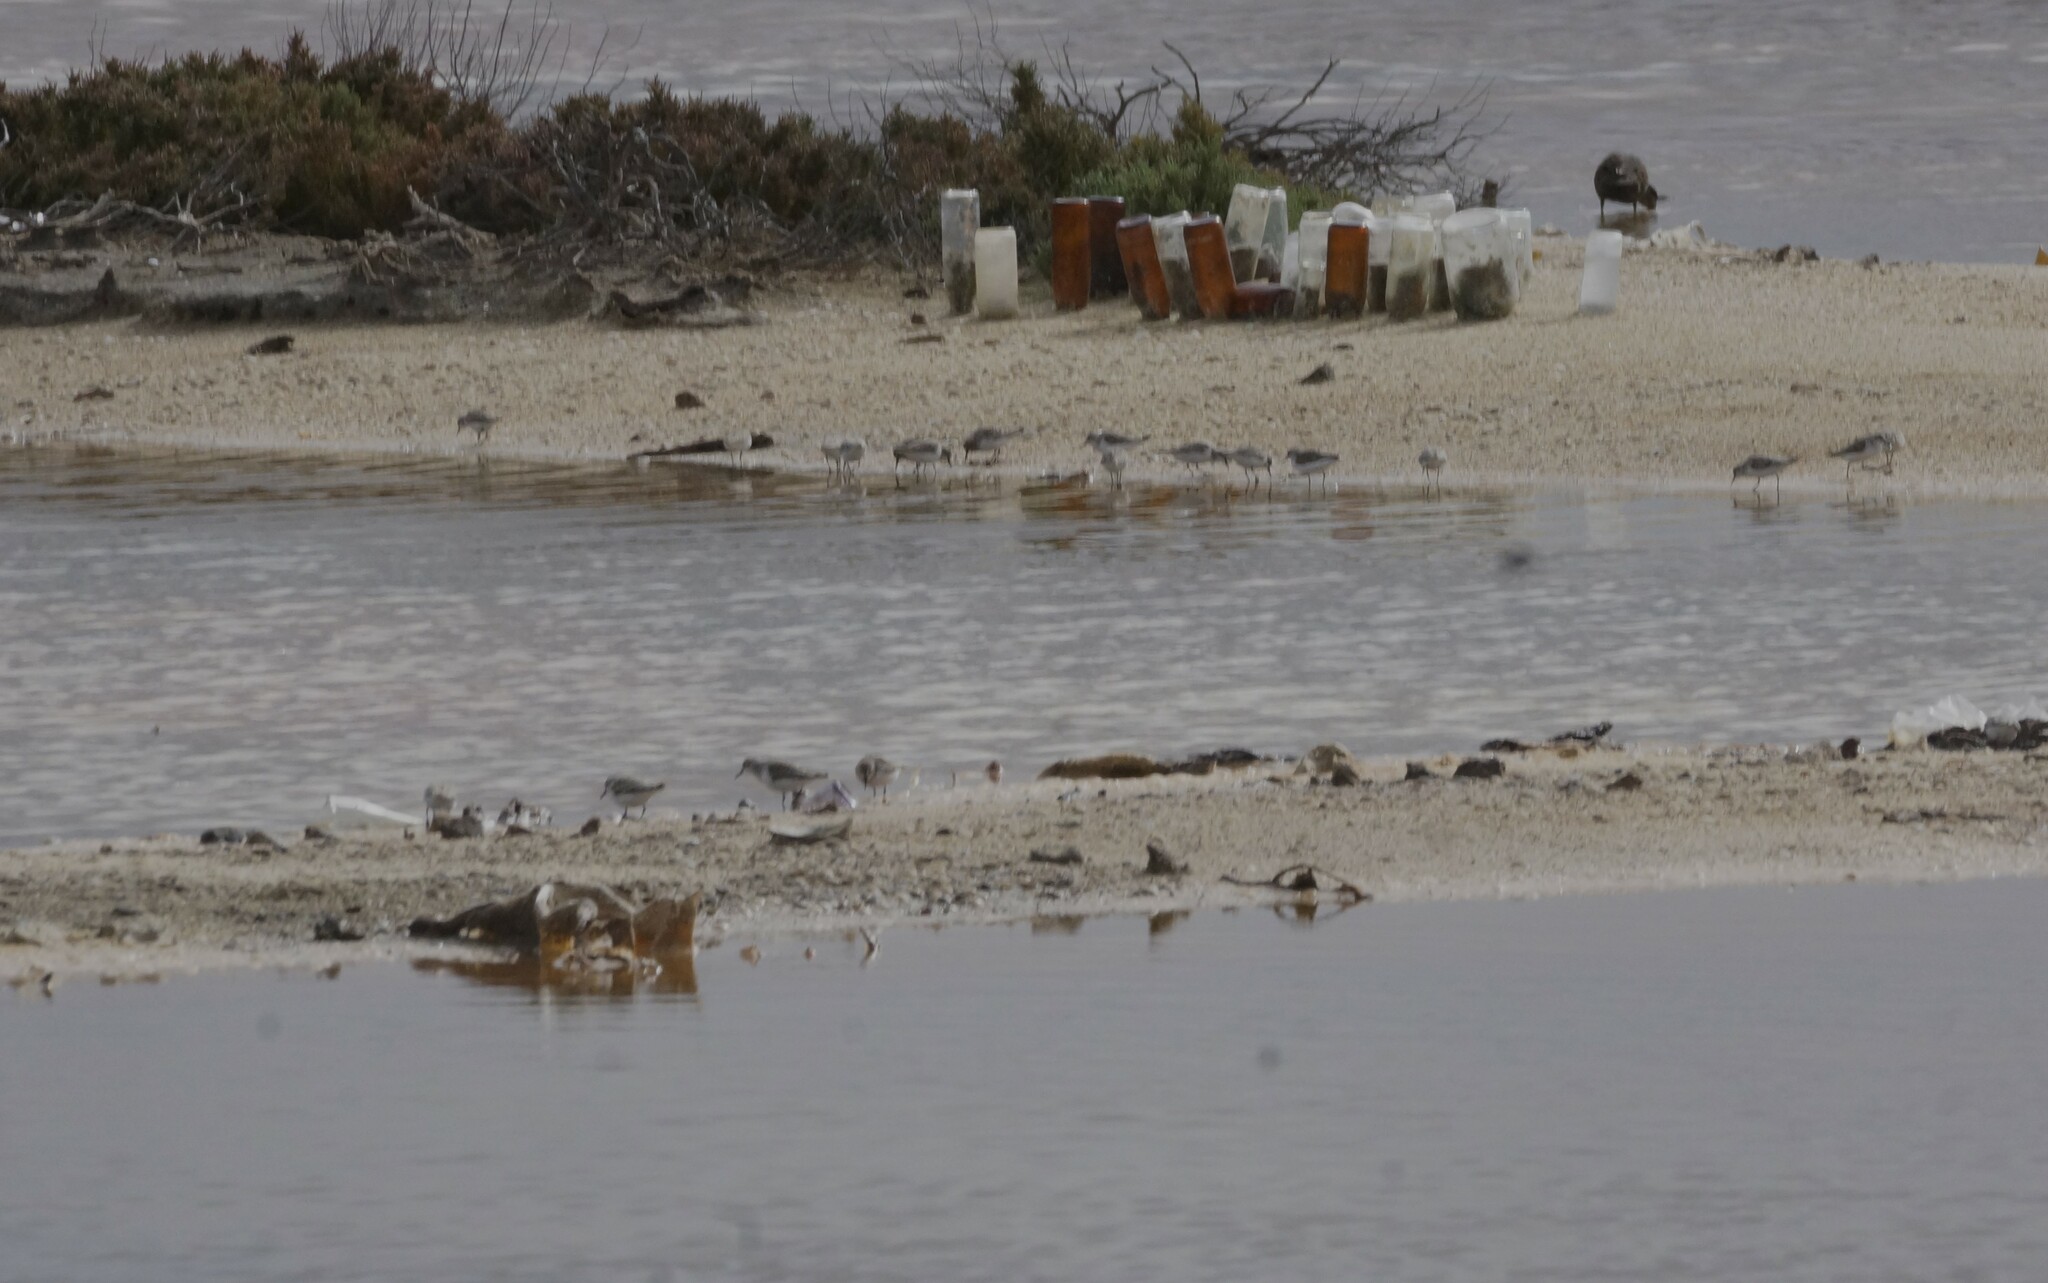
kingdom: Animalia
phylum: Chordata
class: Aves
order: Charadriiformes
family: Scolopacidae
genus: Calidris
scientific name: Calidris ruficollis
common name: Red-necked stint
